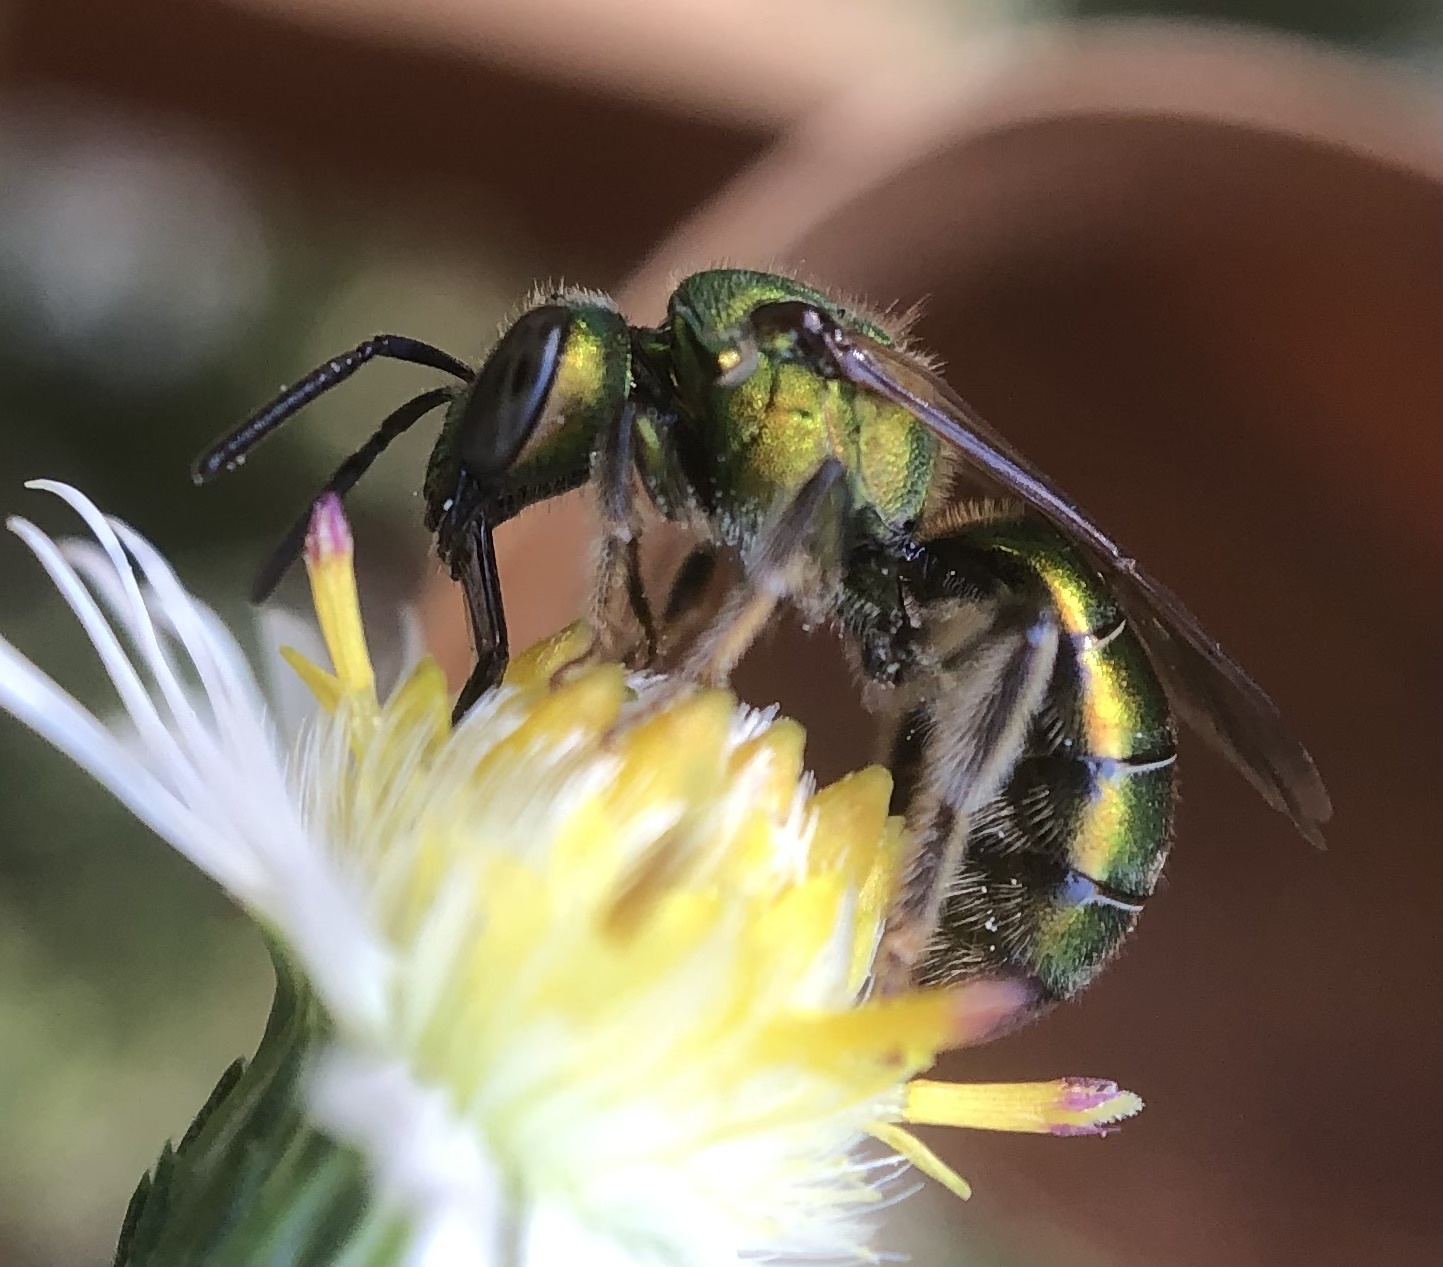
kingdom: Animalia
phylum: Arthropoda
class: Insecta
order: Hymenoptera
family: Halictidae
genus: Augochlora
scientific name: Augochlora pura
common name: Pure green sweat bee
